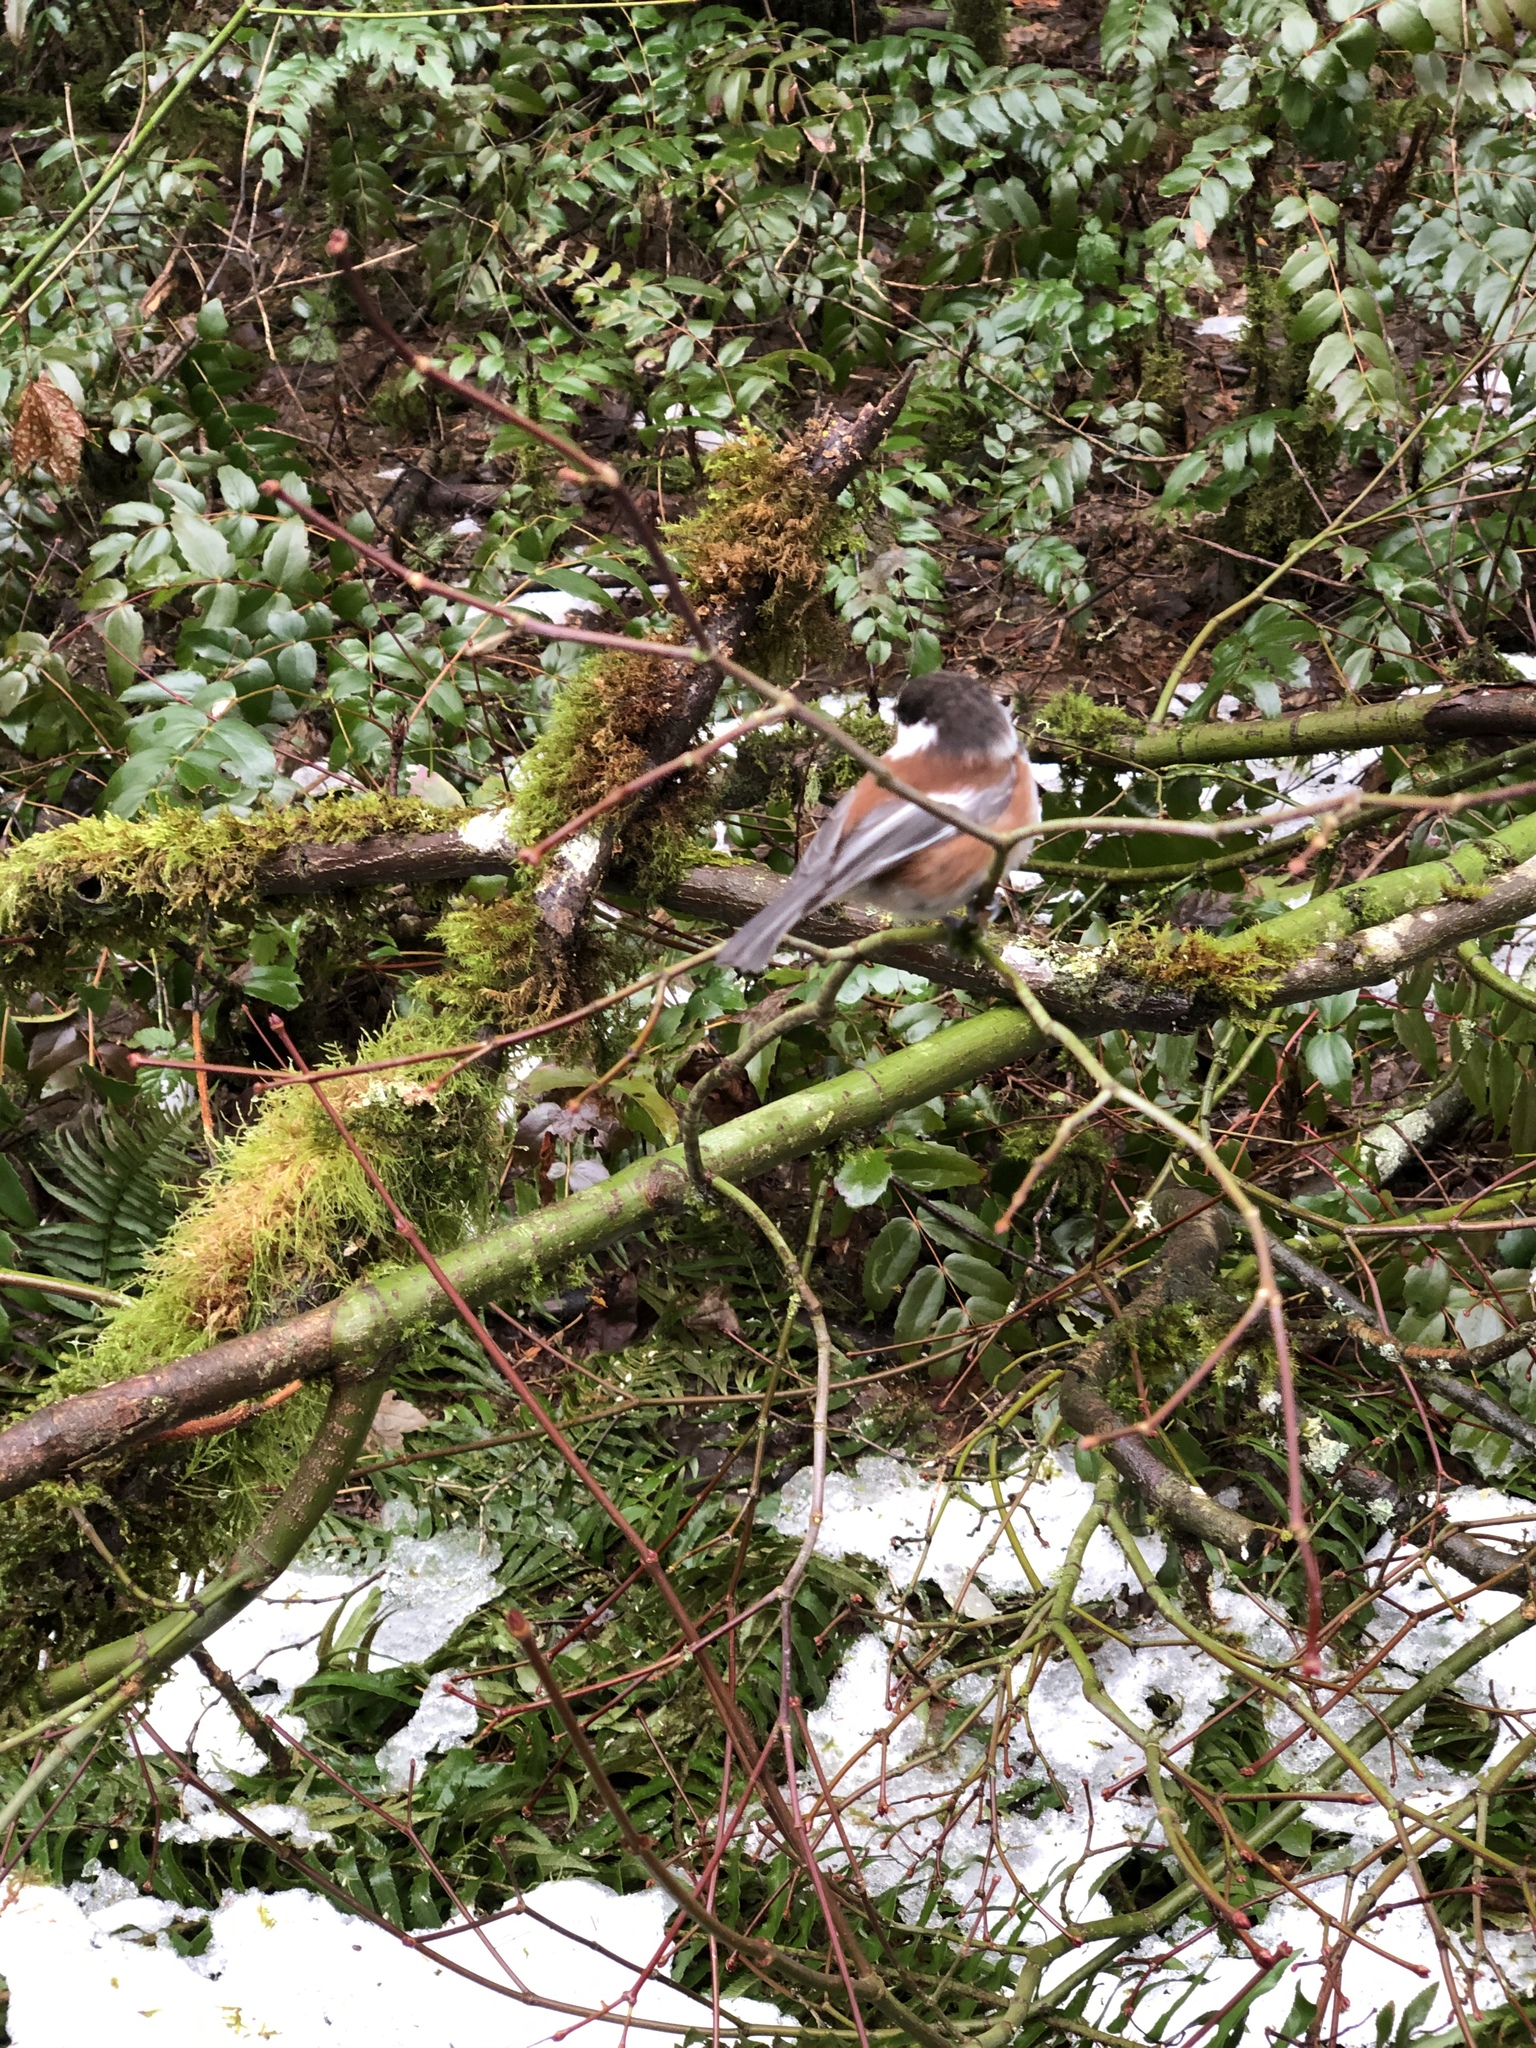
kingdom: Animalia
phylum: Chordata
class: Aves
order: Passeriformes
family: Paridae
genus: Poecile
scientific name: Poecile rufescens
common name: Chestnut-backed chickadee
